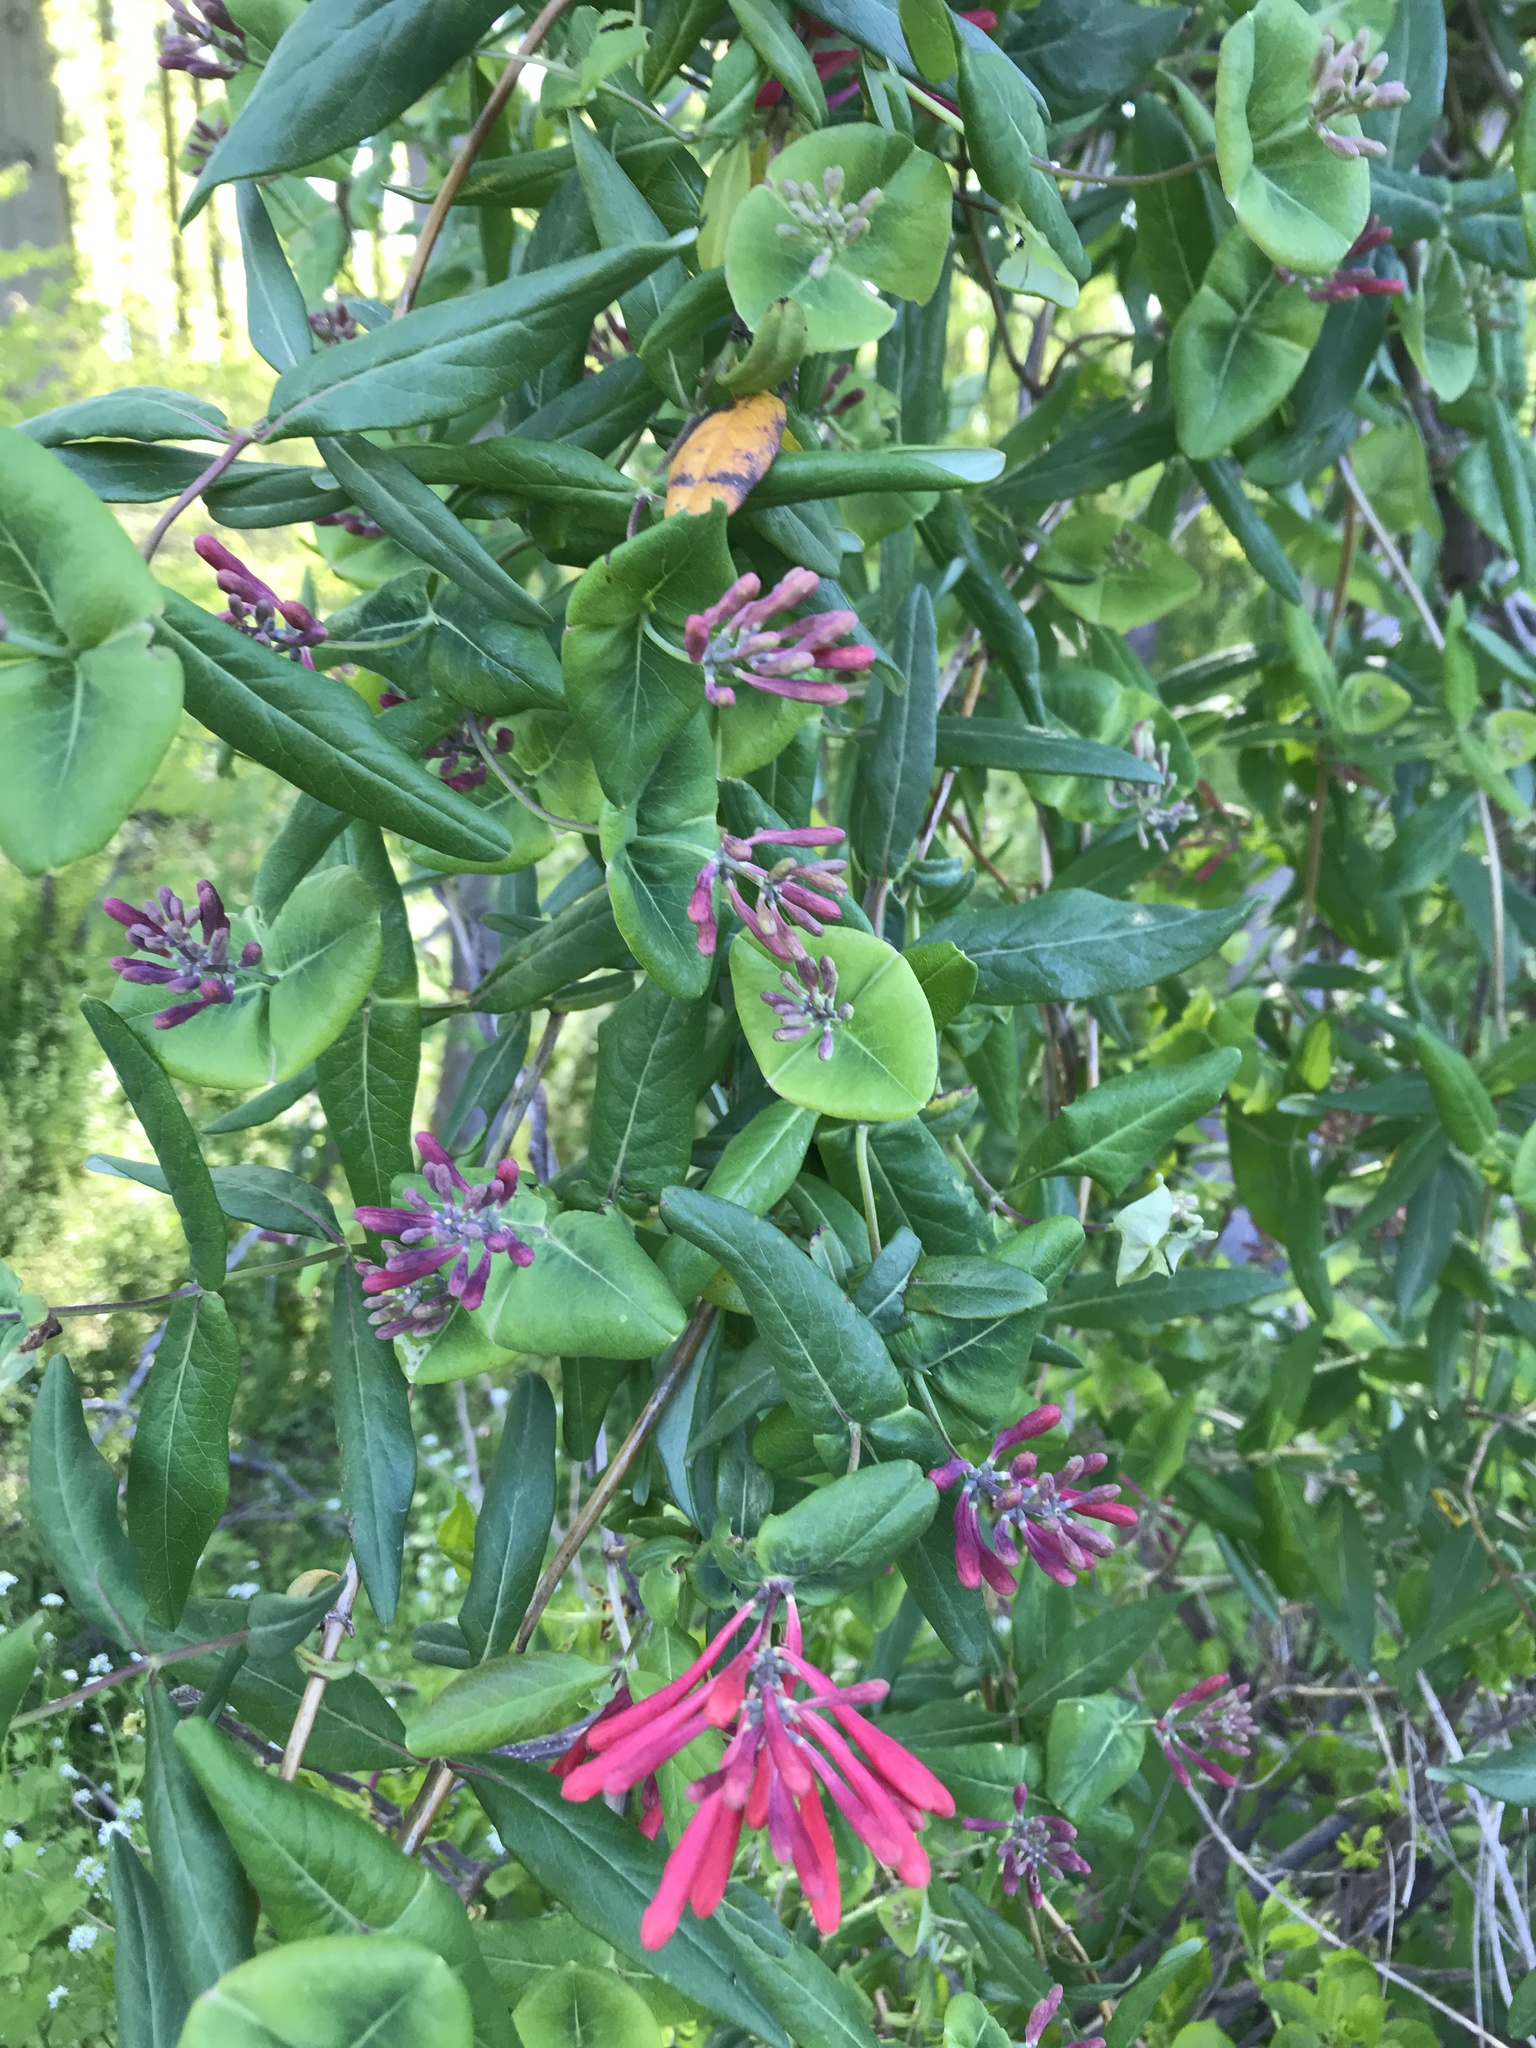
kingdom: Plantae
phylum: Tracheophyta
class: Magnoliopsida
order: Dipsacales
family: Caprifoliaceae
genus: Lonicera
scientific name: Lonicera sempervirens
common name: Coral honeysuckle
